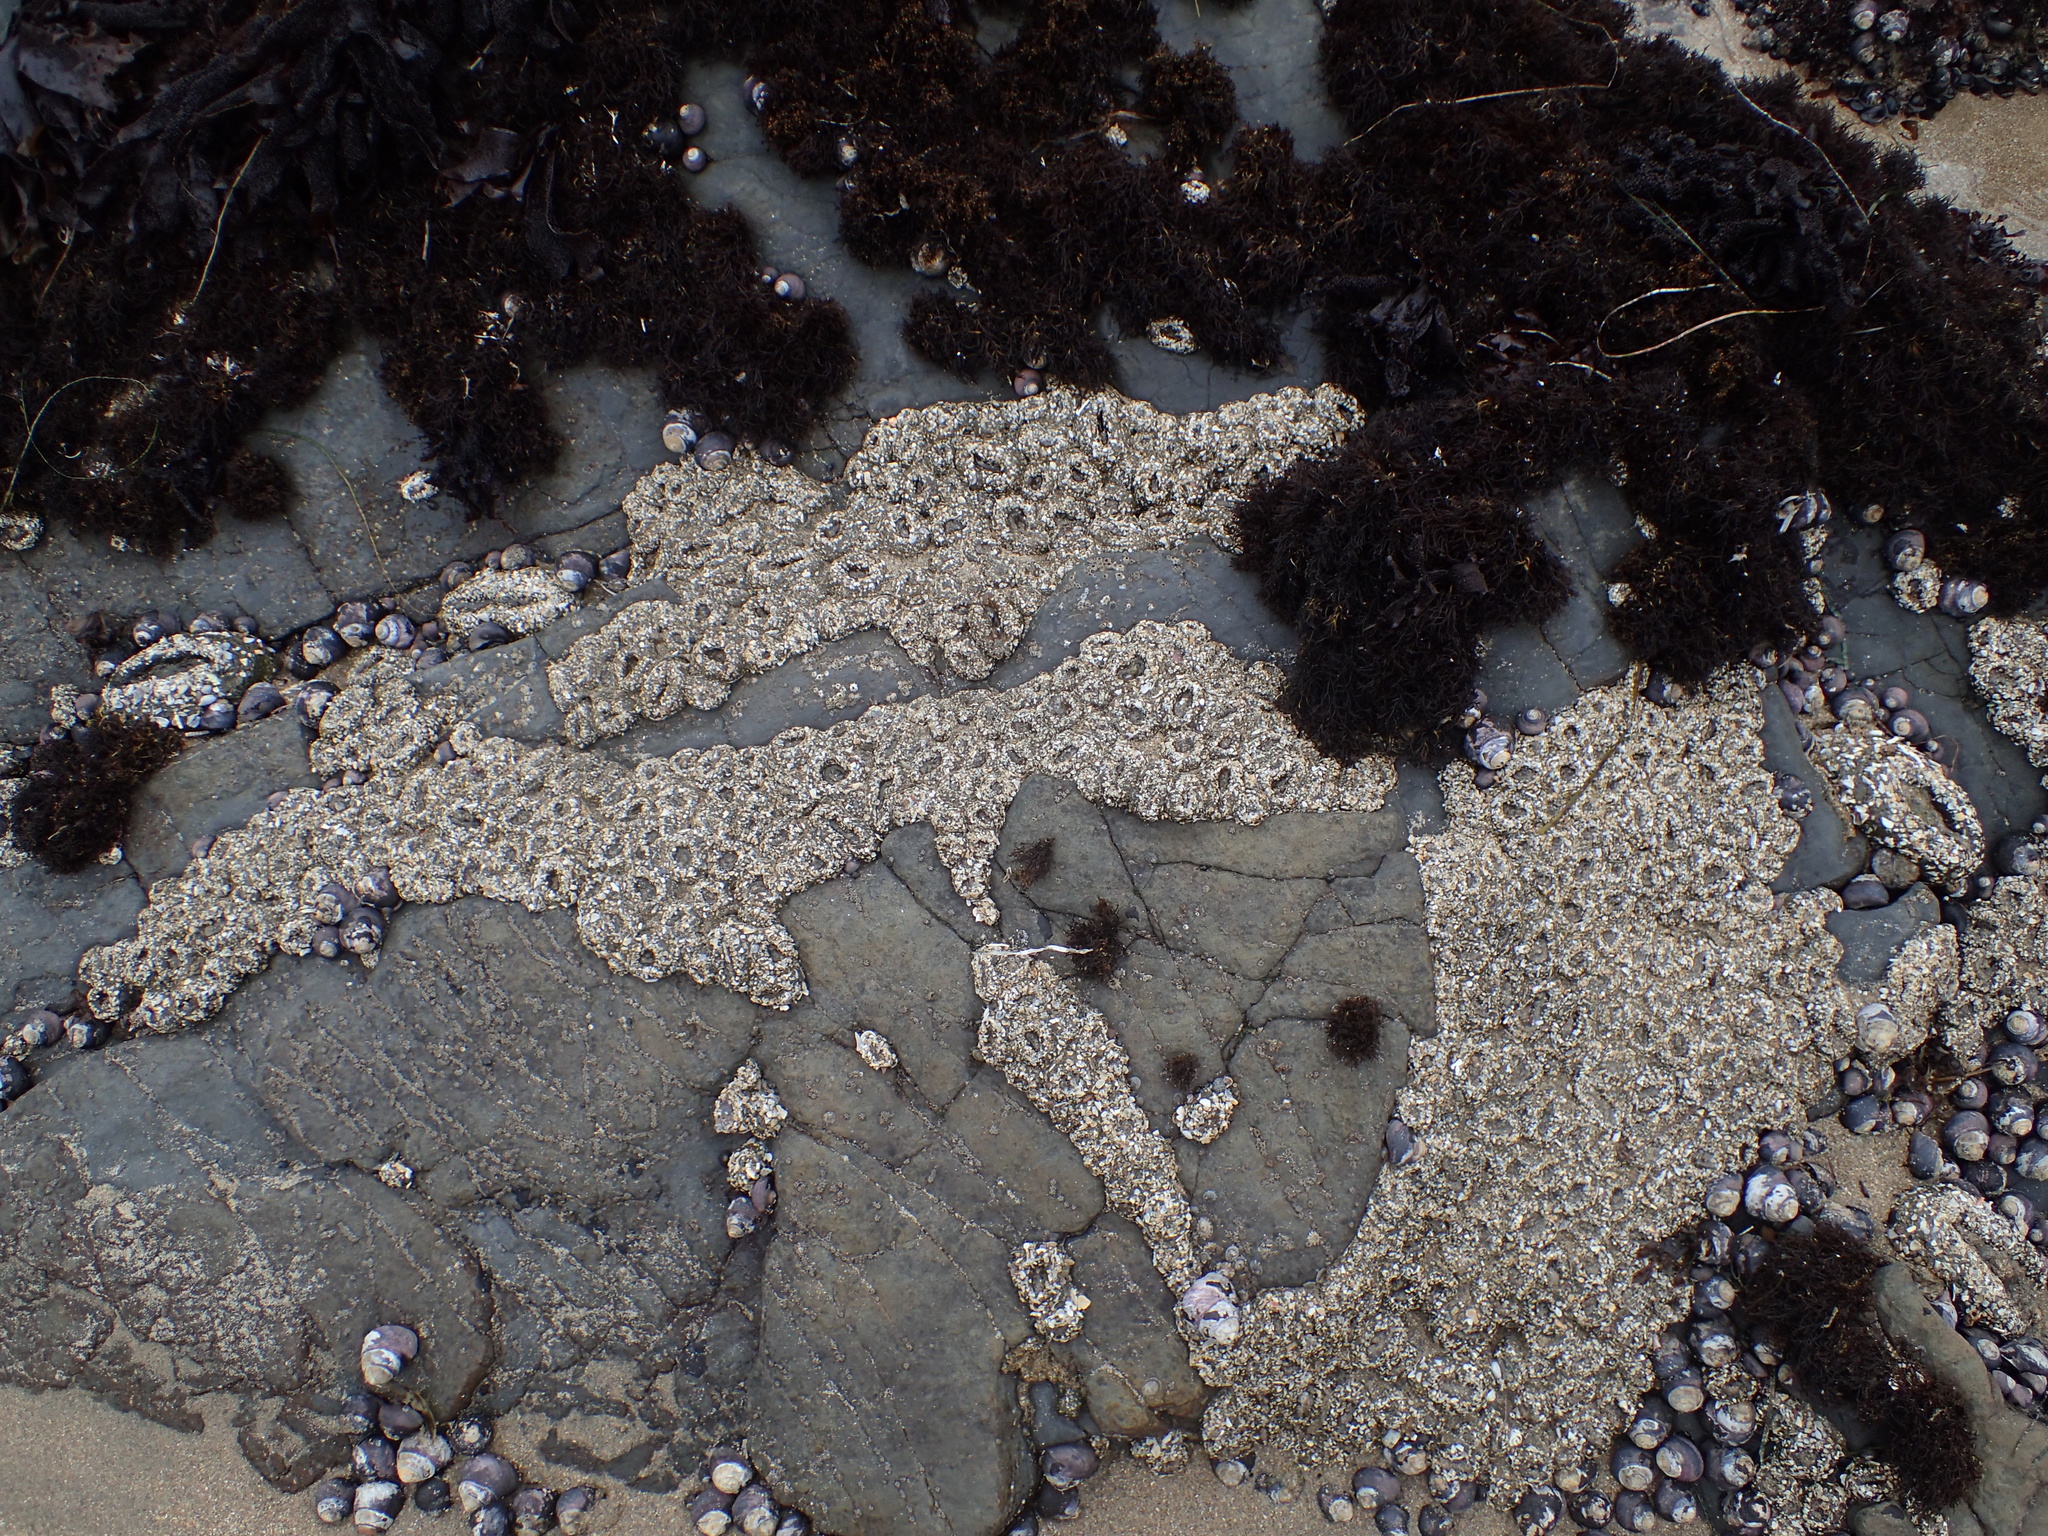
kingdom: Animalia
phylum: Cnidaria
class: Anthozoa
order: Actiniaria
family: Actiniidae
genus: Anthopleura
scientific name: Anthopleura elegantissima
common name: Clonal anemone
